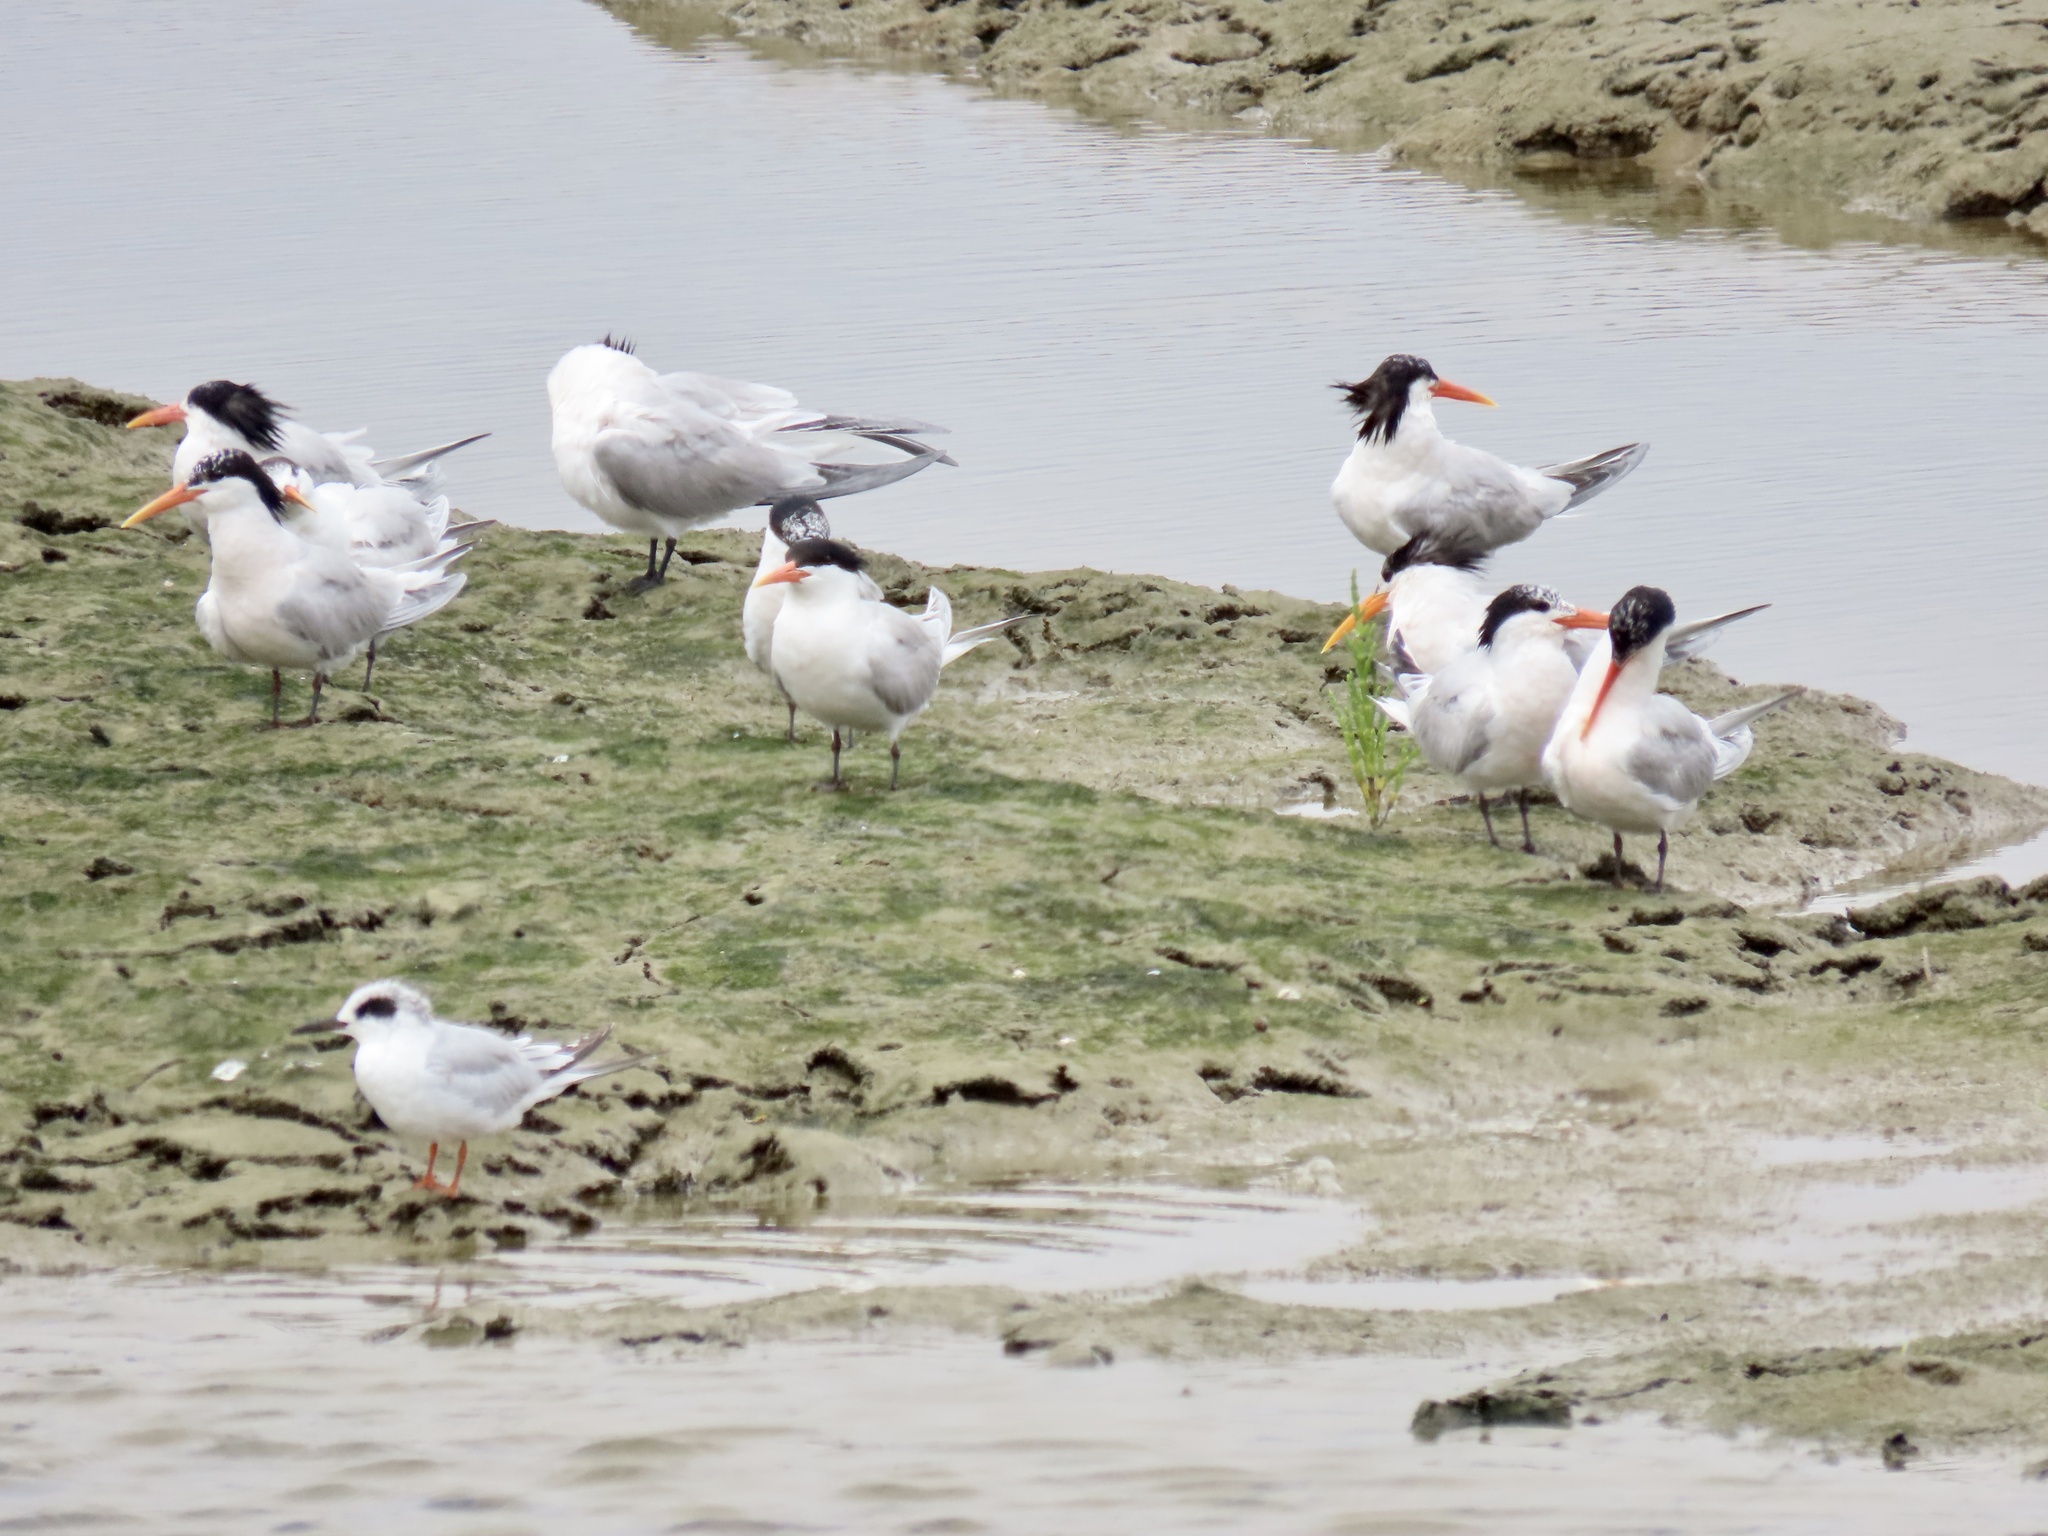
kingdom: Animalia
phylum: Chordata
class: Aves
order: Charadriiformes
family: Laridae
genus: Thalasseus
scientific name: Thalasseus elegans
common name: Elegant tern
